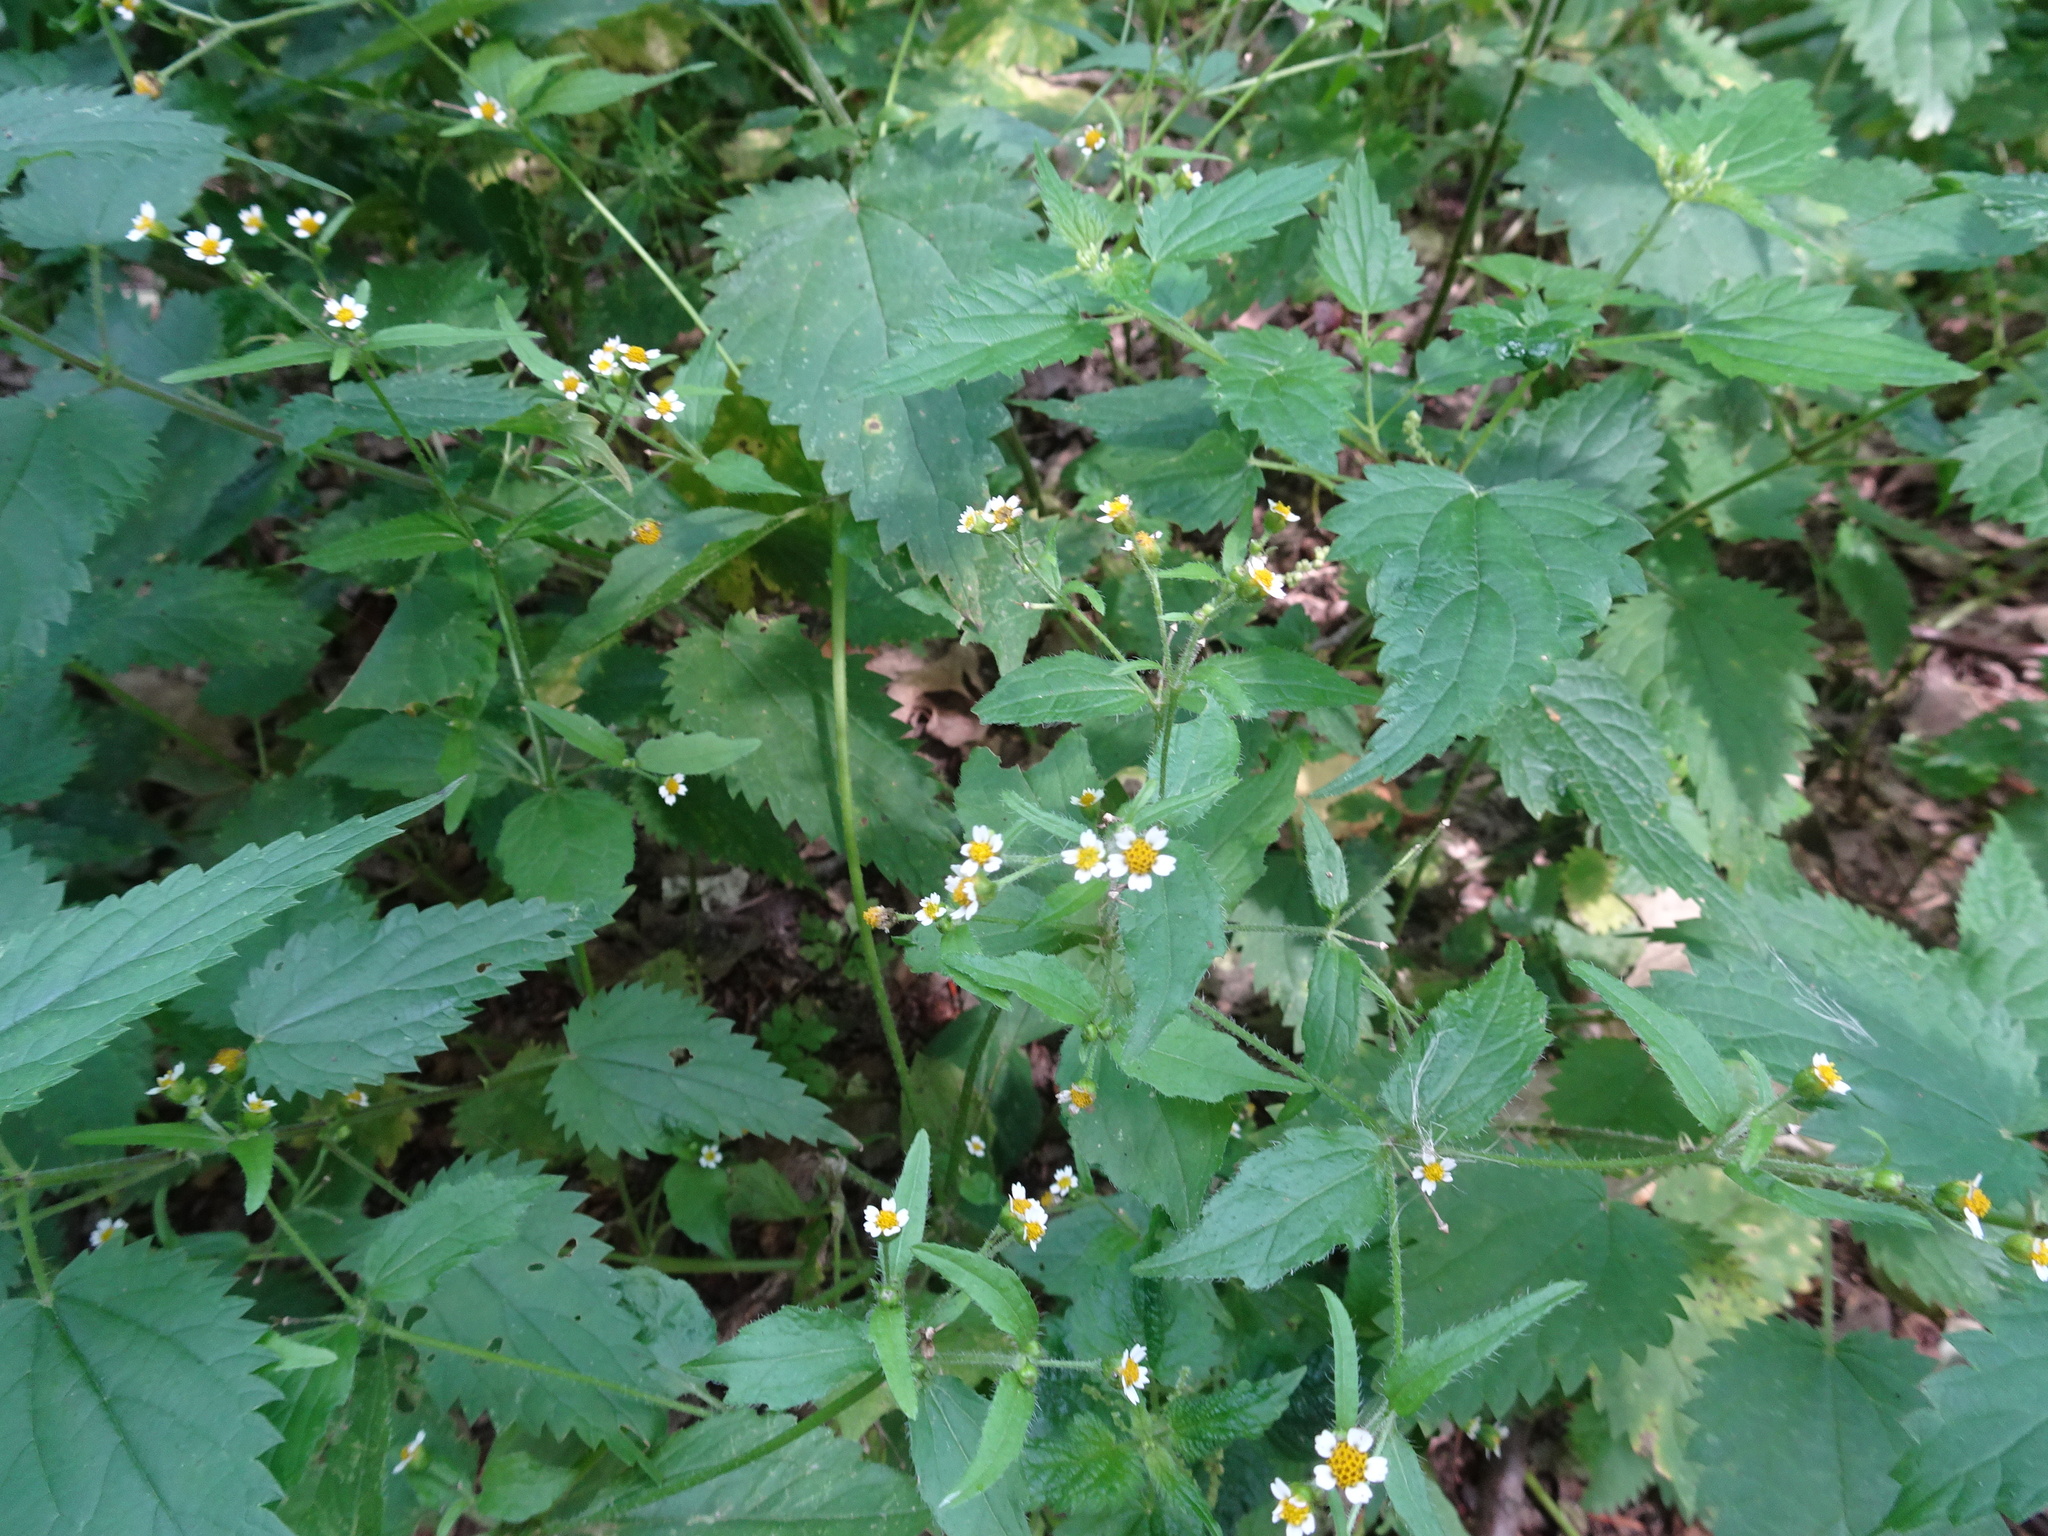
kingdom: Plantae
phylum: Tracheophyta
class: Magnoliopsida
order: Asterales
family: Asteraceae
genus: Galinsoga
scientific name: Galinsoga quadriradiata
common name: Shaggy soldier
